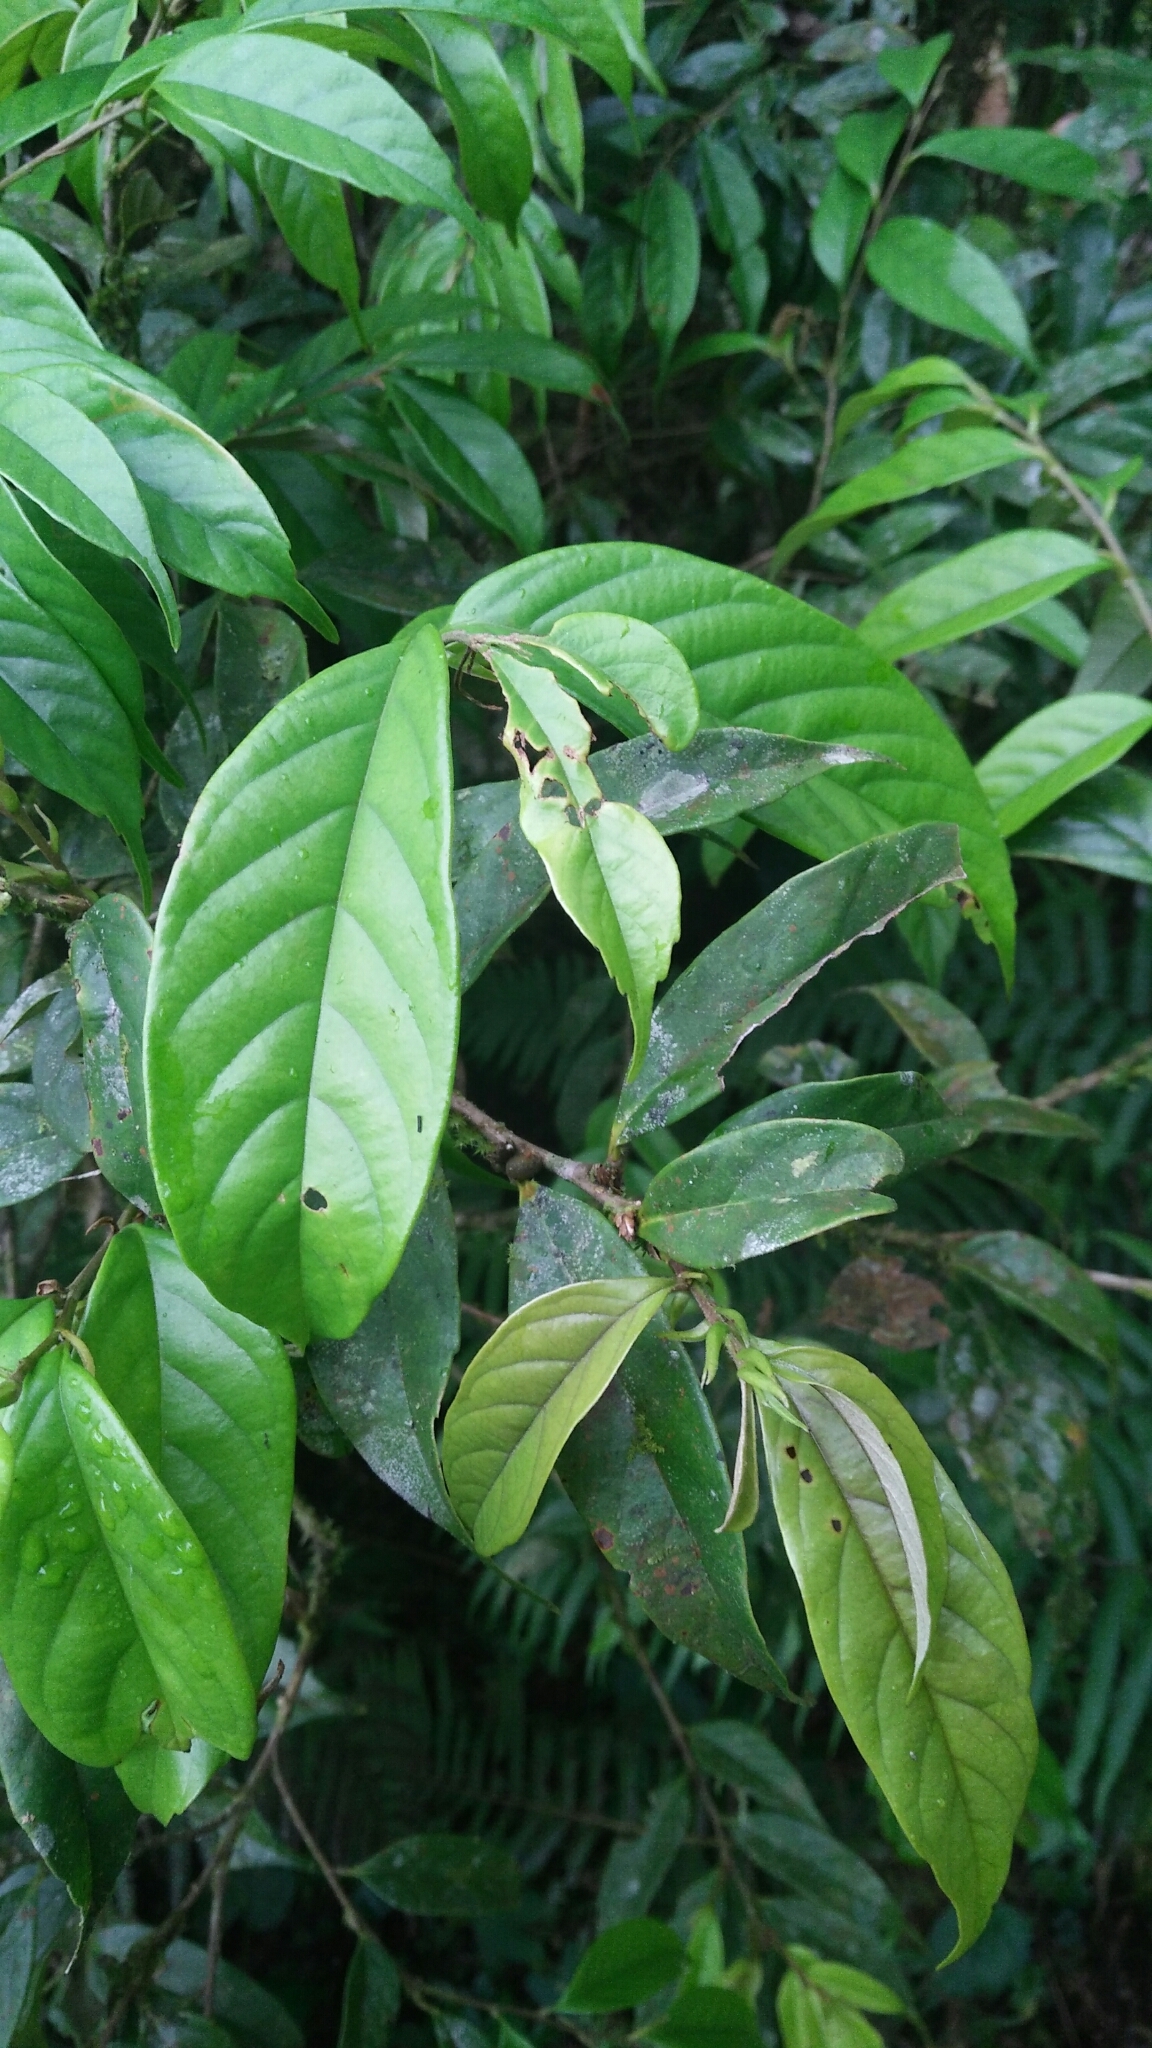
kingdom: Plantae
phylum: Tracheophyta
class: Magnoliopsida
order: Fagales
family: Fagaceae
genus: Castanopsis
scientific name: Castanopsis faberi
